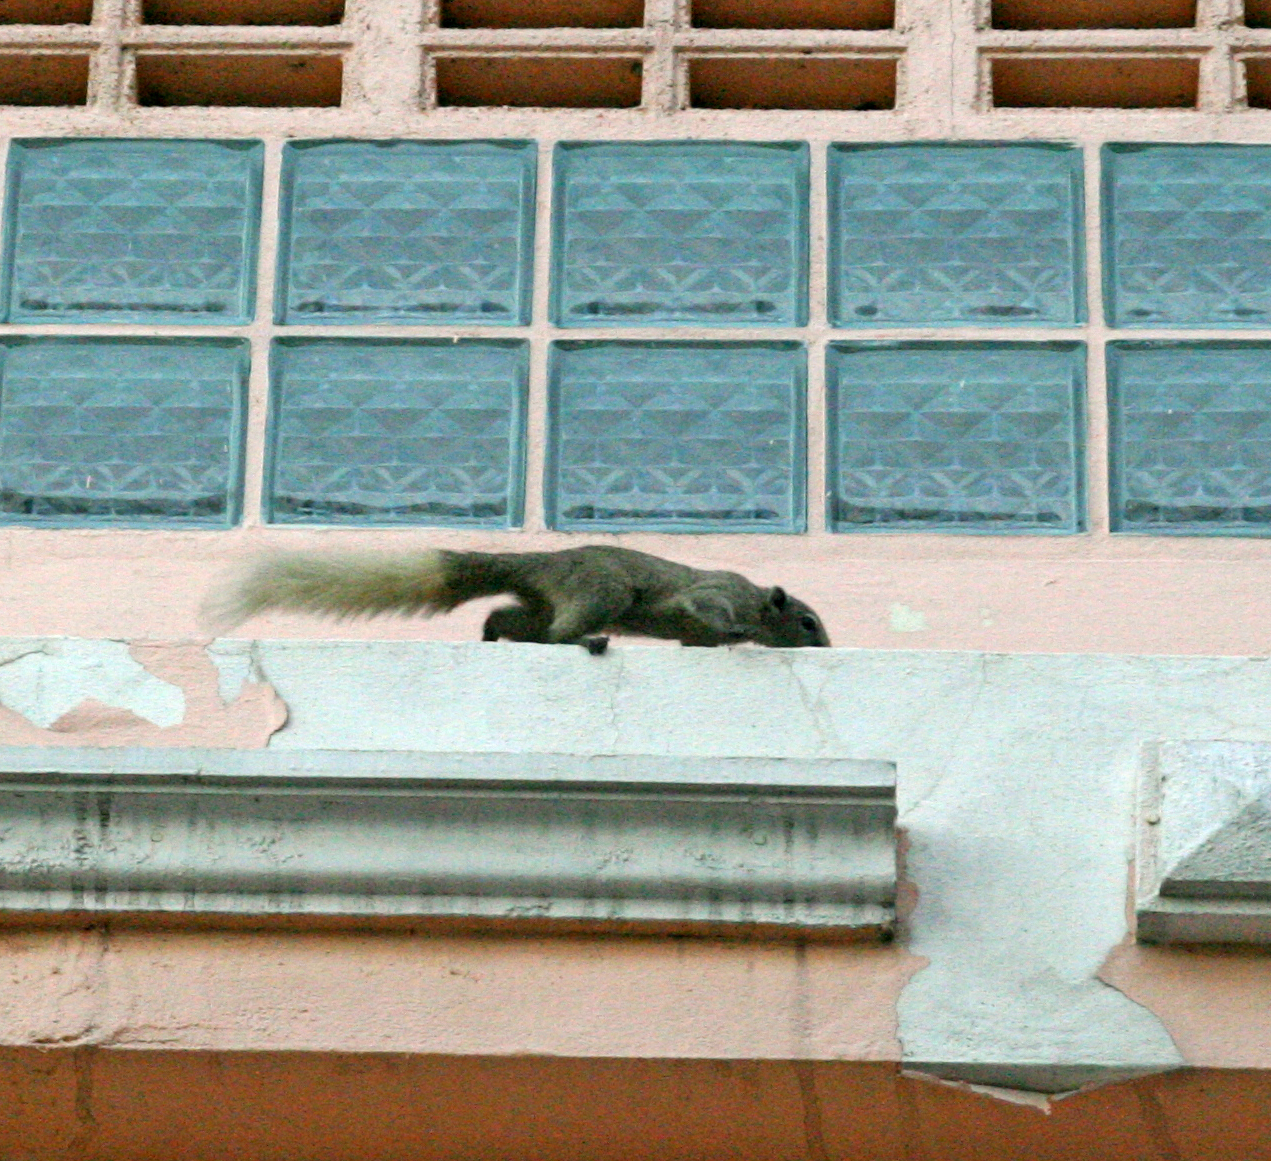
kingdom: Animalia
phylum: Chordata
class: Mammalia
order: Rodentia
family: Sciuridae
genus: Callosciurus
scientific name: Callosciurus finlaysonii
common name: Finlayson's squirrel
